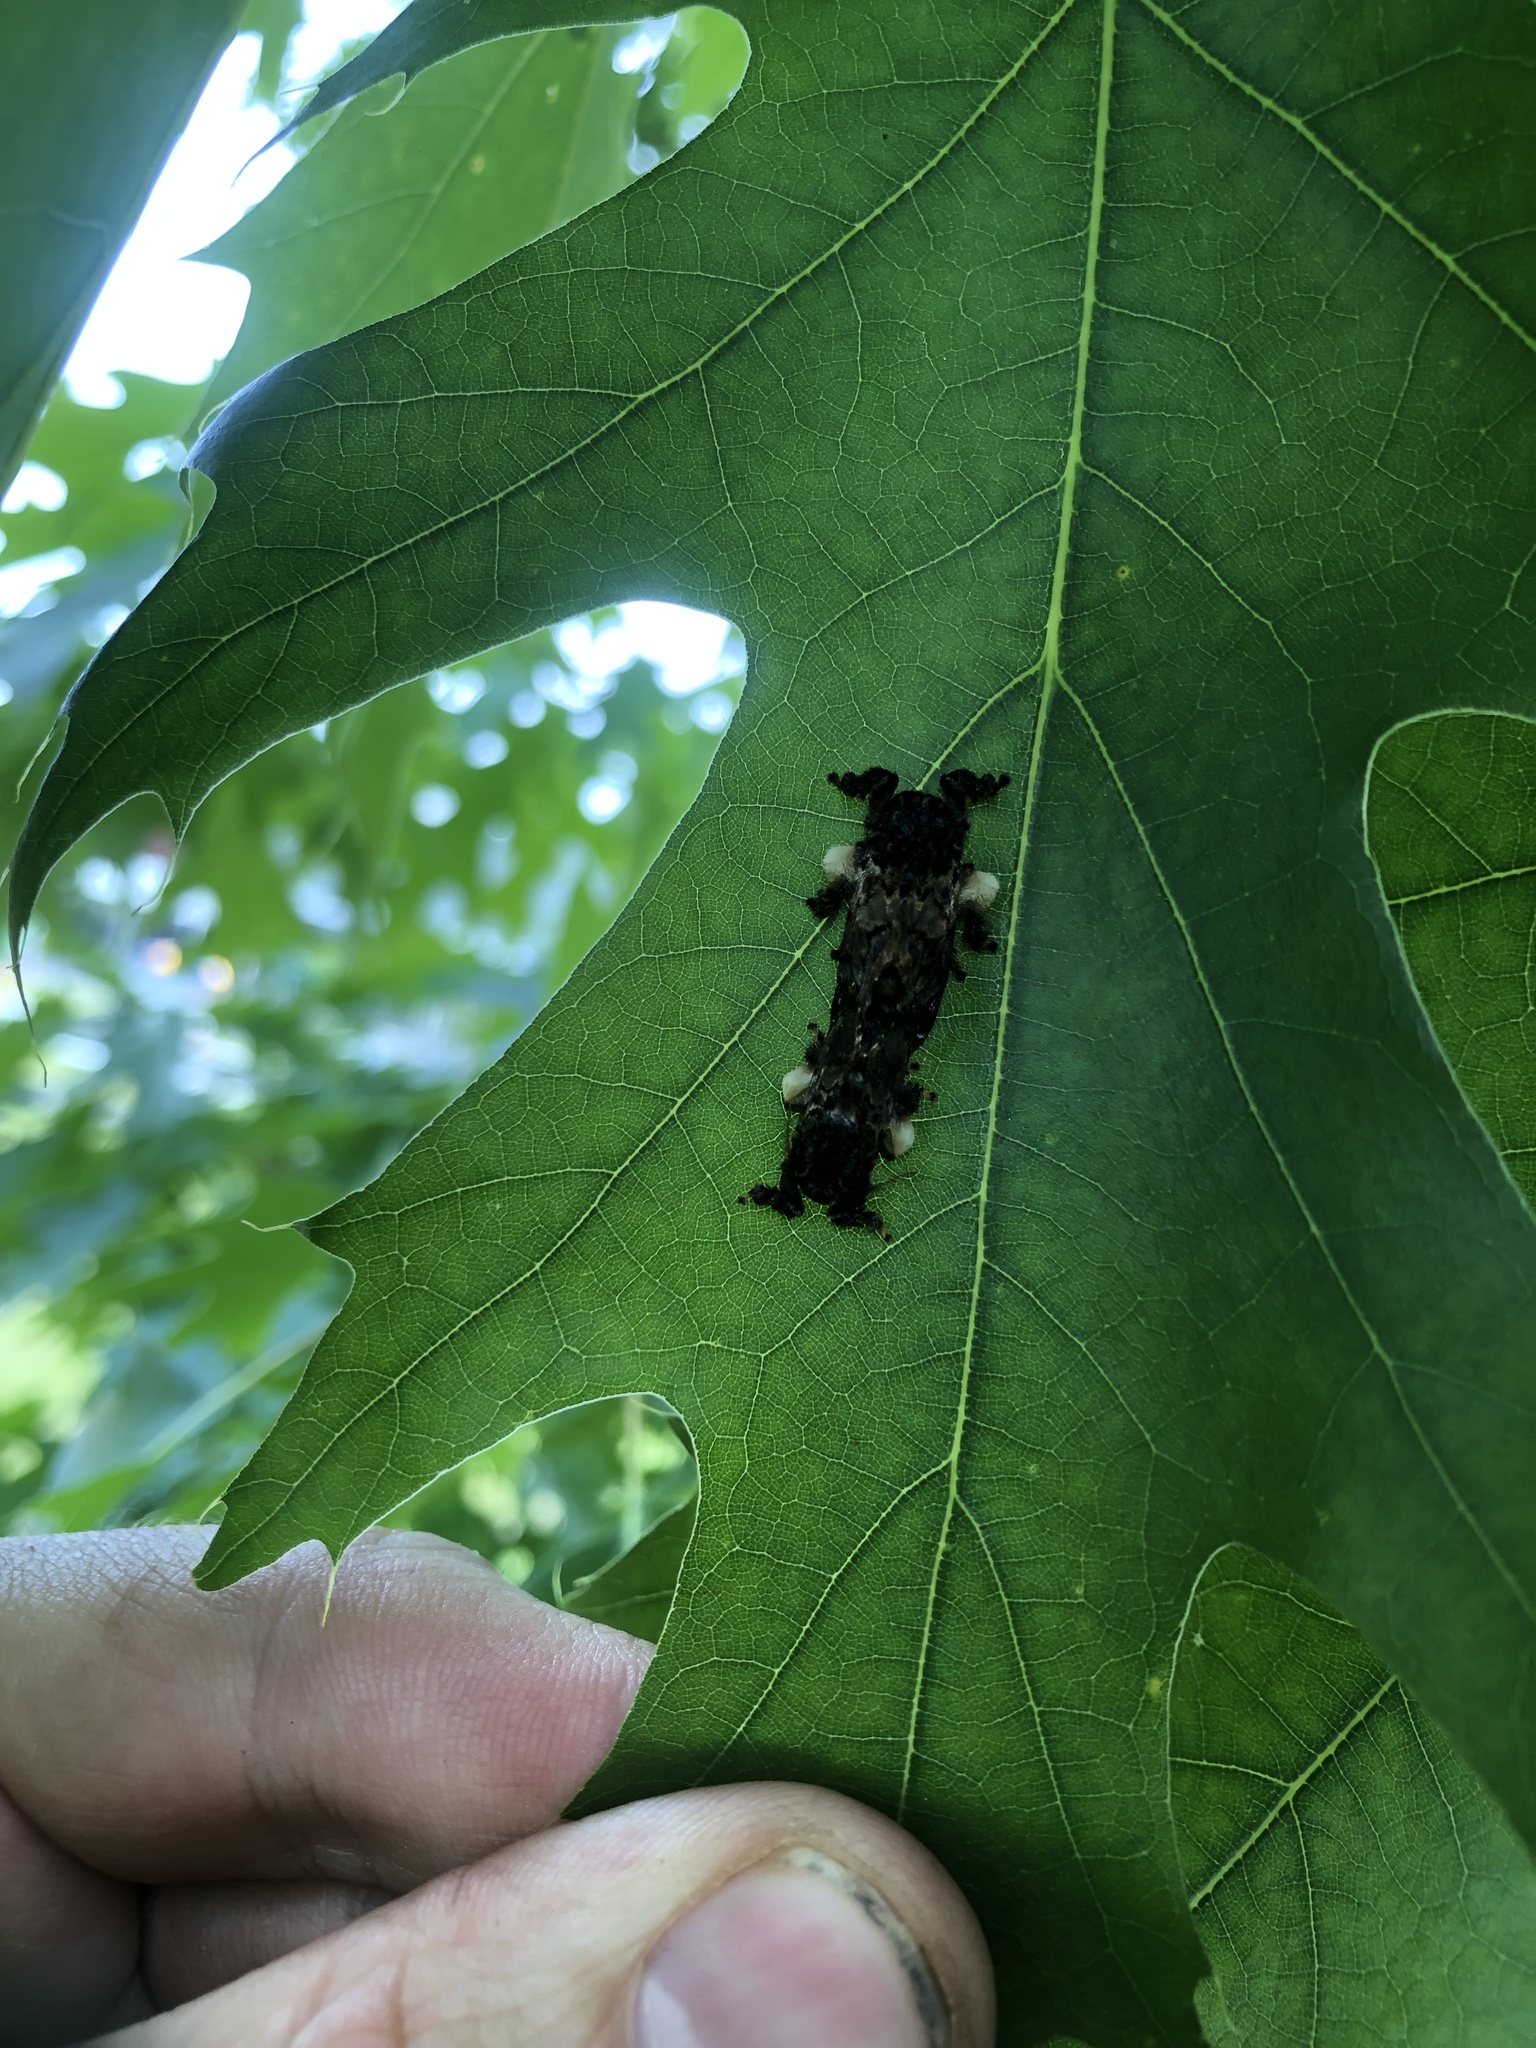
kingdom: Animalia
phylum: Arthropoda
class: Insecta
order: Lepidoptera
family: Limacodidae
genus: Phobetron
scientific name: Phobetron pithecium
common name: Hag moth
